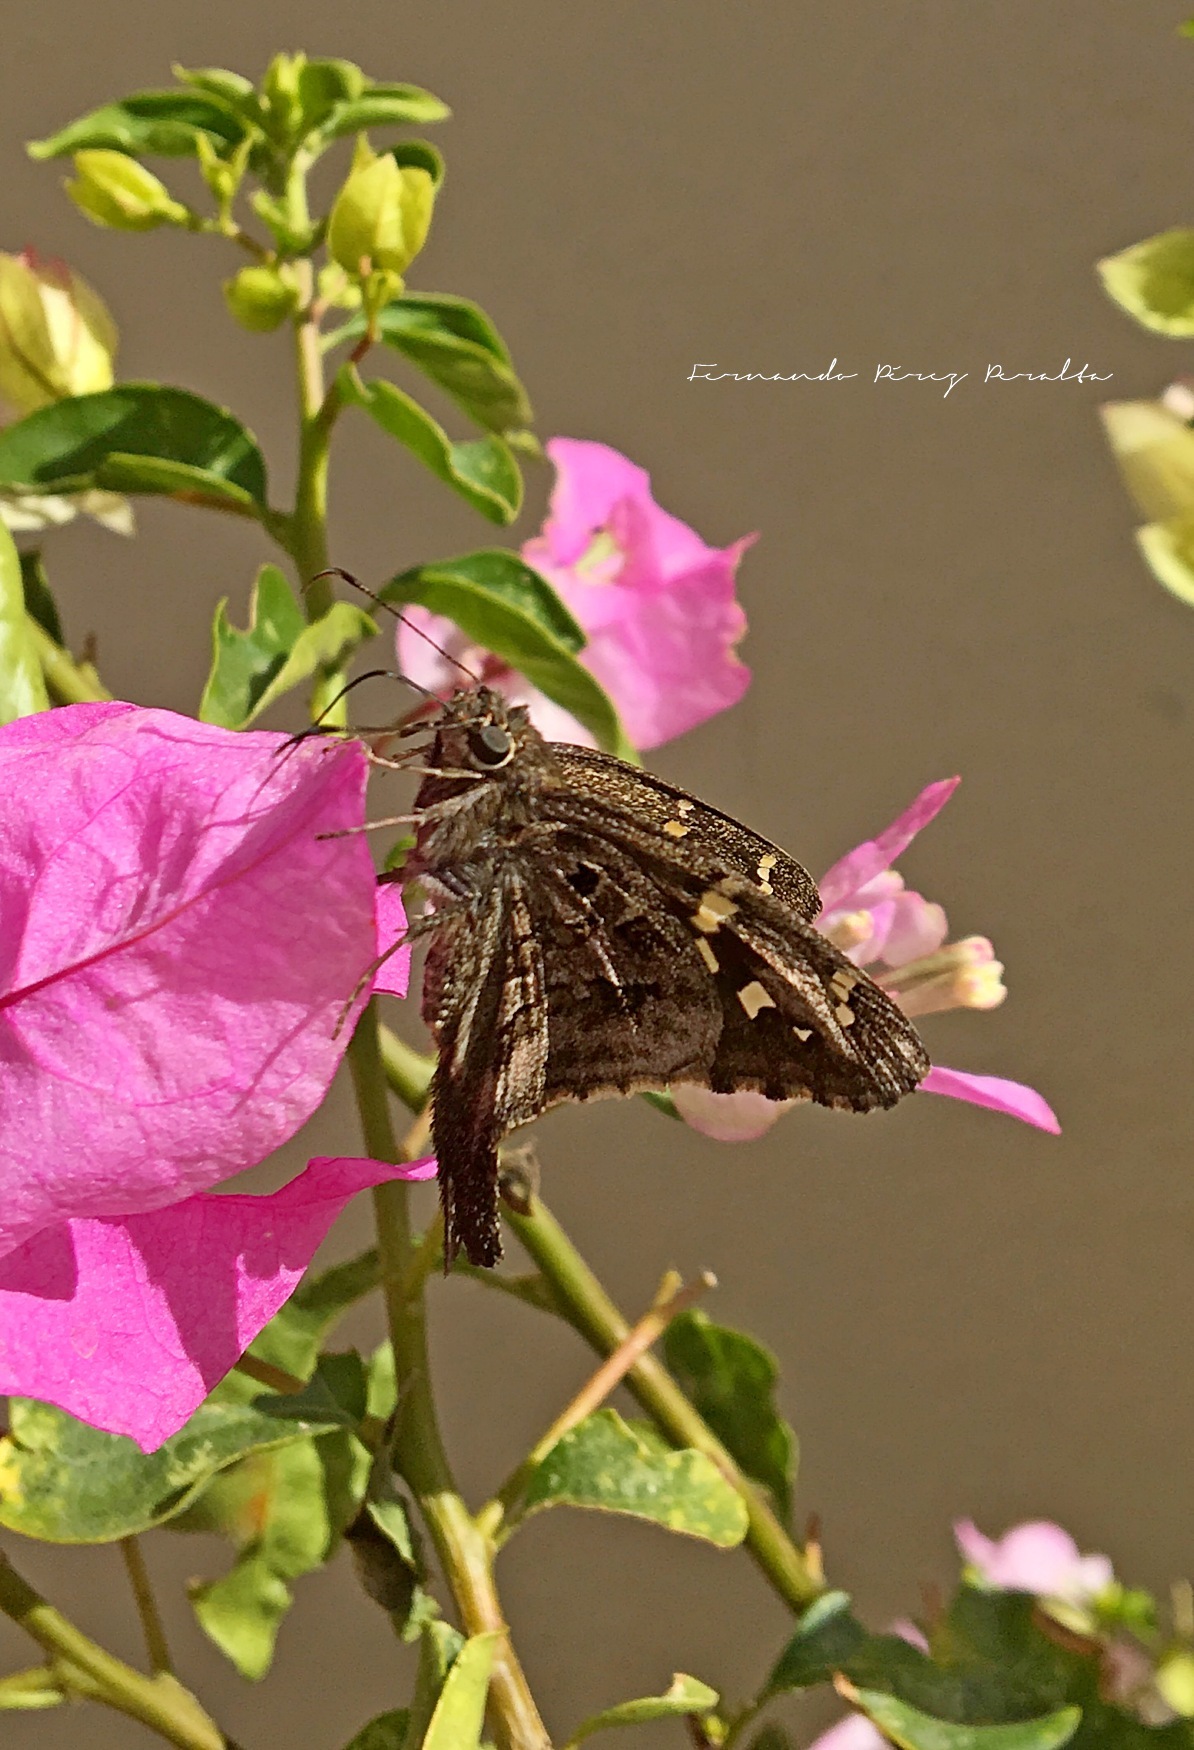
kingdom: Animalia
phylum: Arthropoda
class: Insecta
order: Lepidoptera
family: Hesperiidae
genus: Thorybes
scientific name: Thorybes
